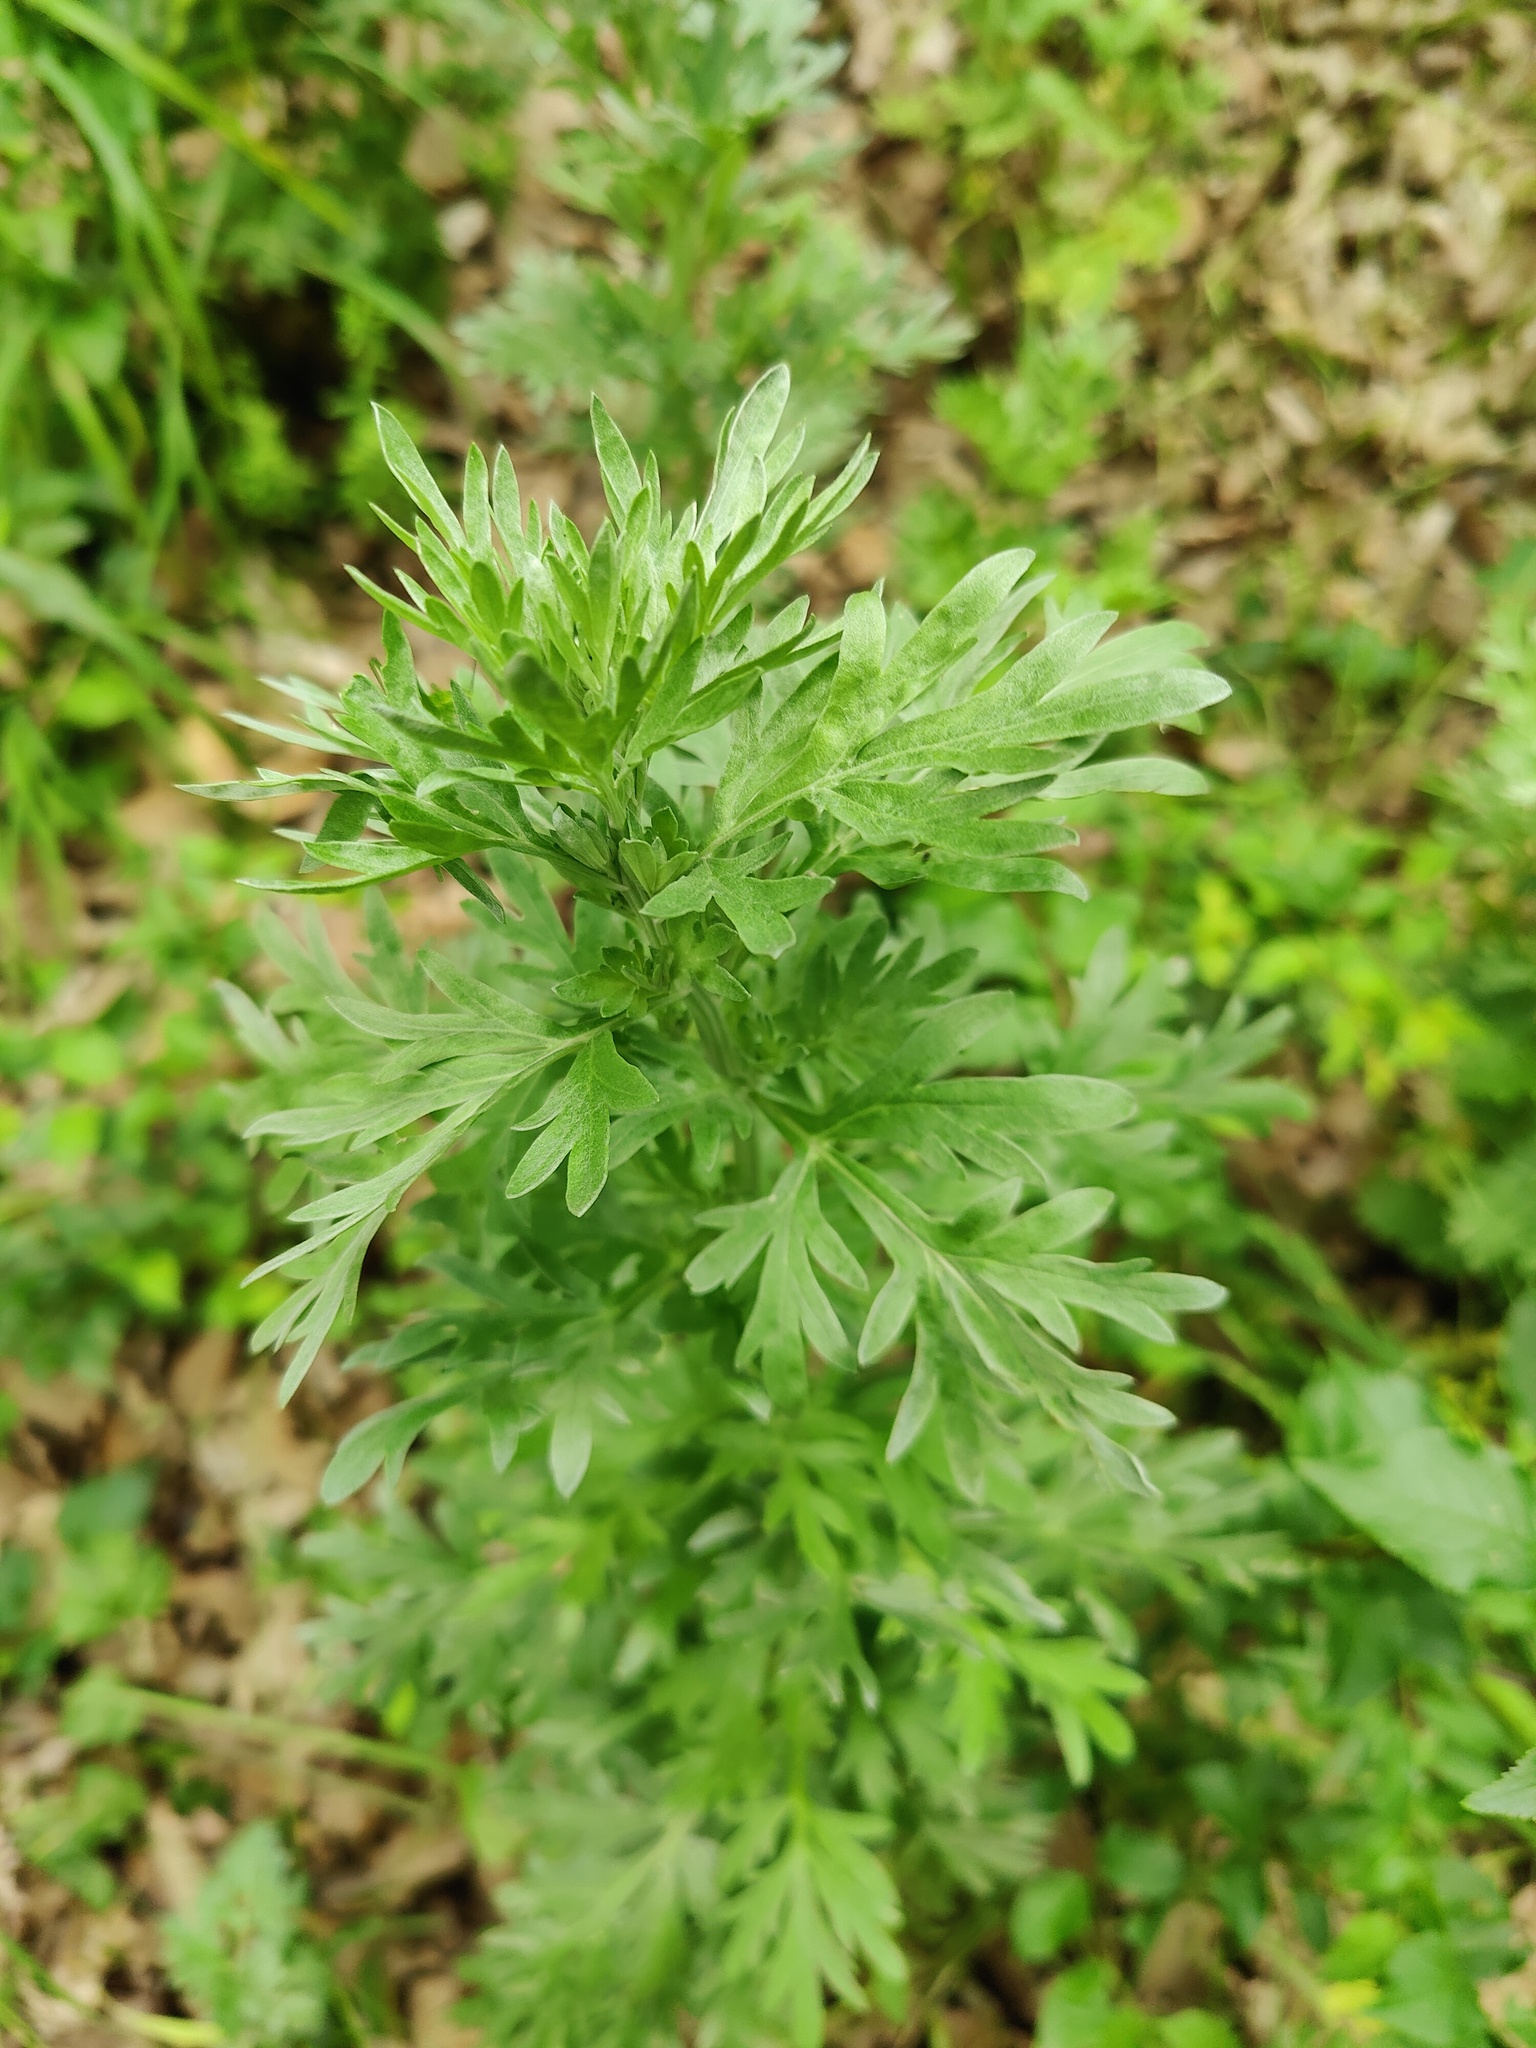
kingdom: Plantae
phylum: Tracheophyta
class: Magnoliopsida
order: Asterales
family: Asteraceae
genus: Artemisia
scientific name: Artemisia absinthium
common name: Wormwood
